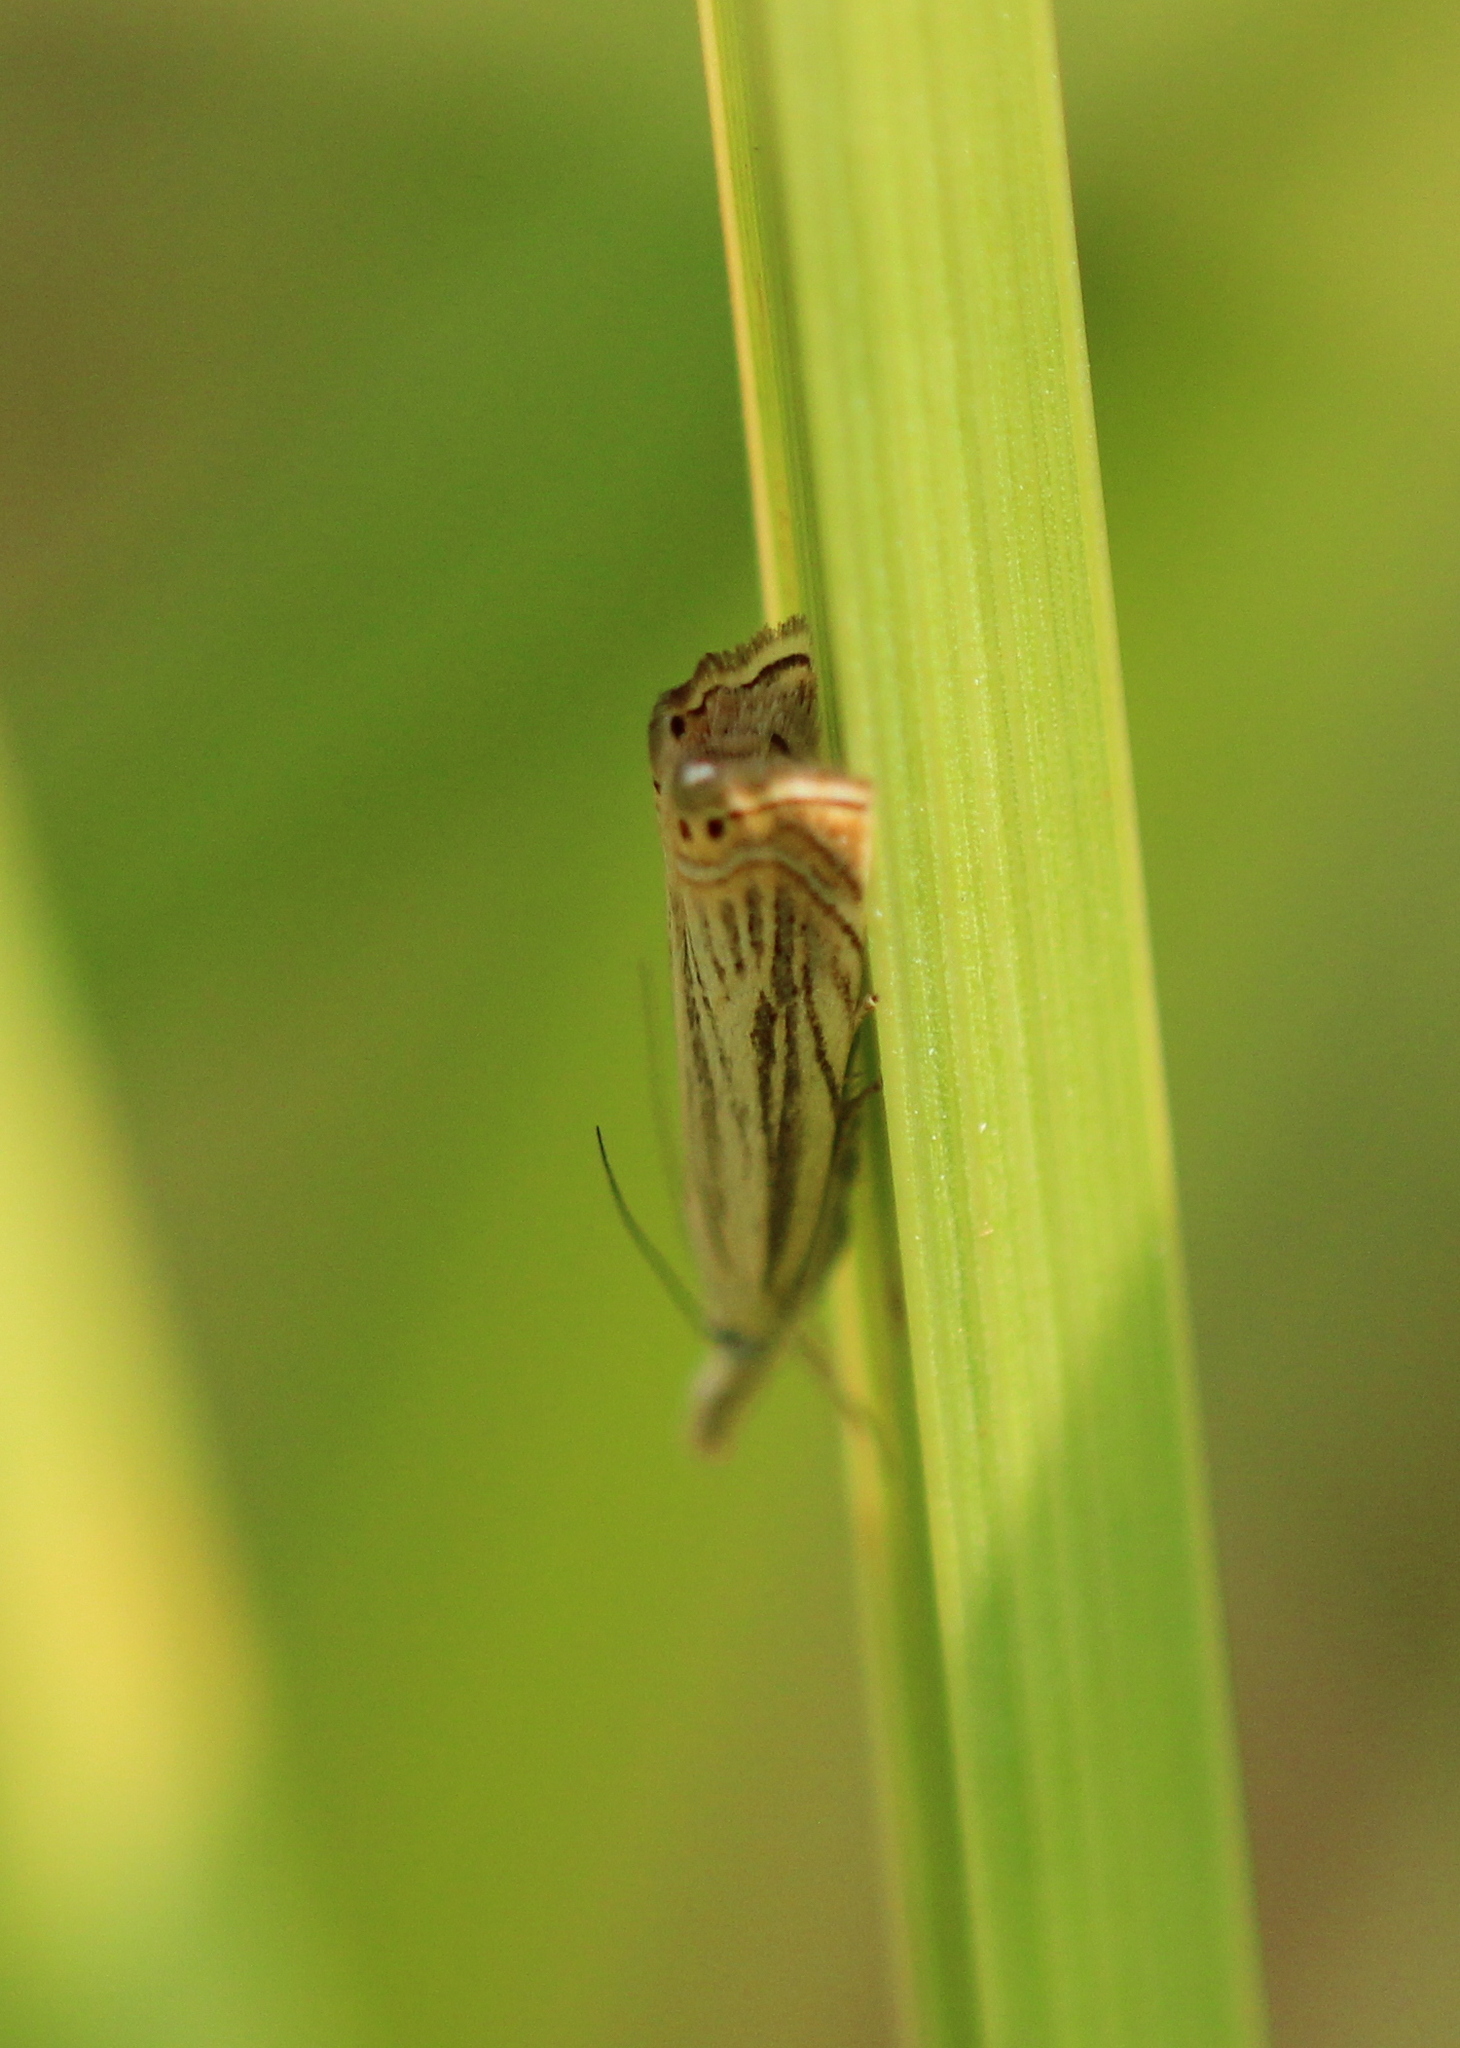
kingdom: Animalia
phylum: Arthropoda
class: Insecta
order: Lepidoptera
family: Crambidae
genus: Chrysoteuchia
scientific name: Chrysoteuchia topiarius
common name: Topiary grass-veneer
